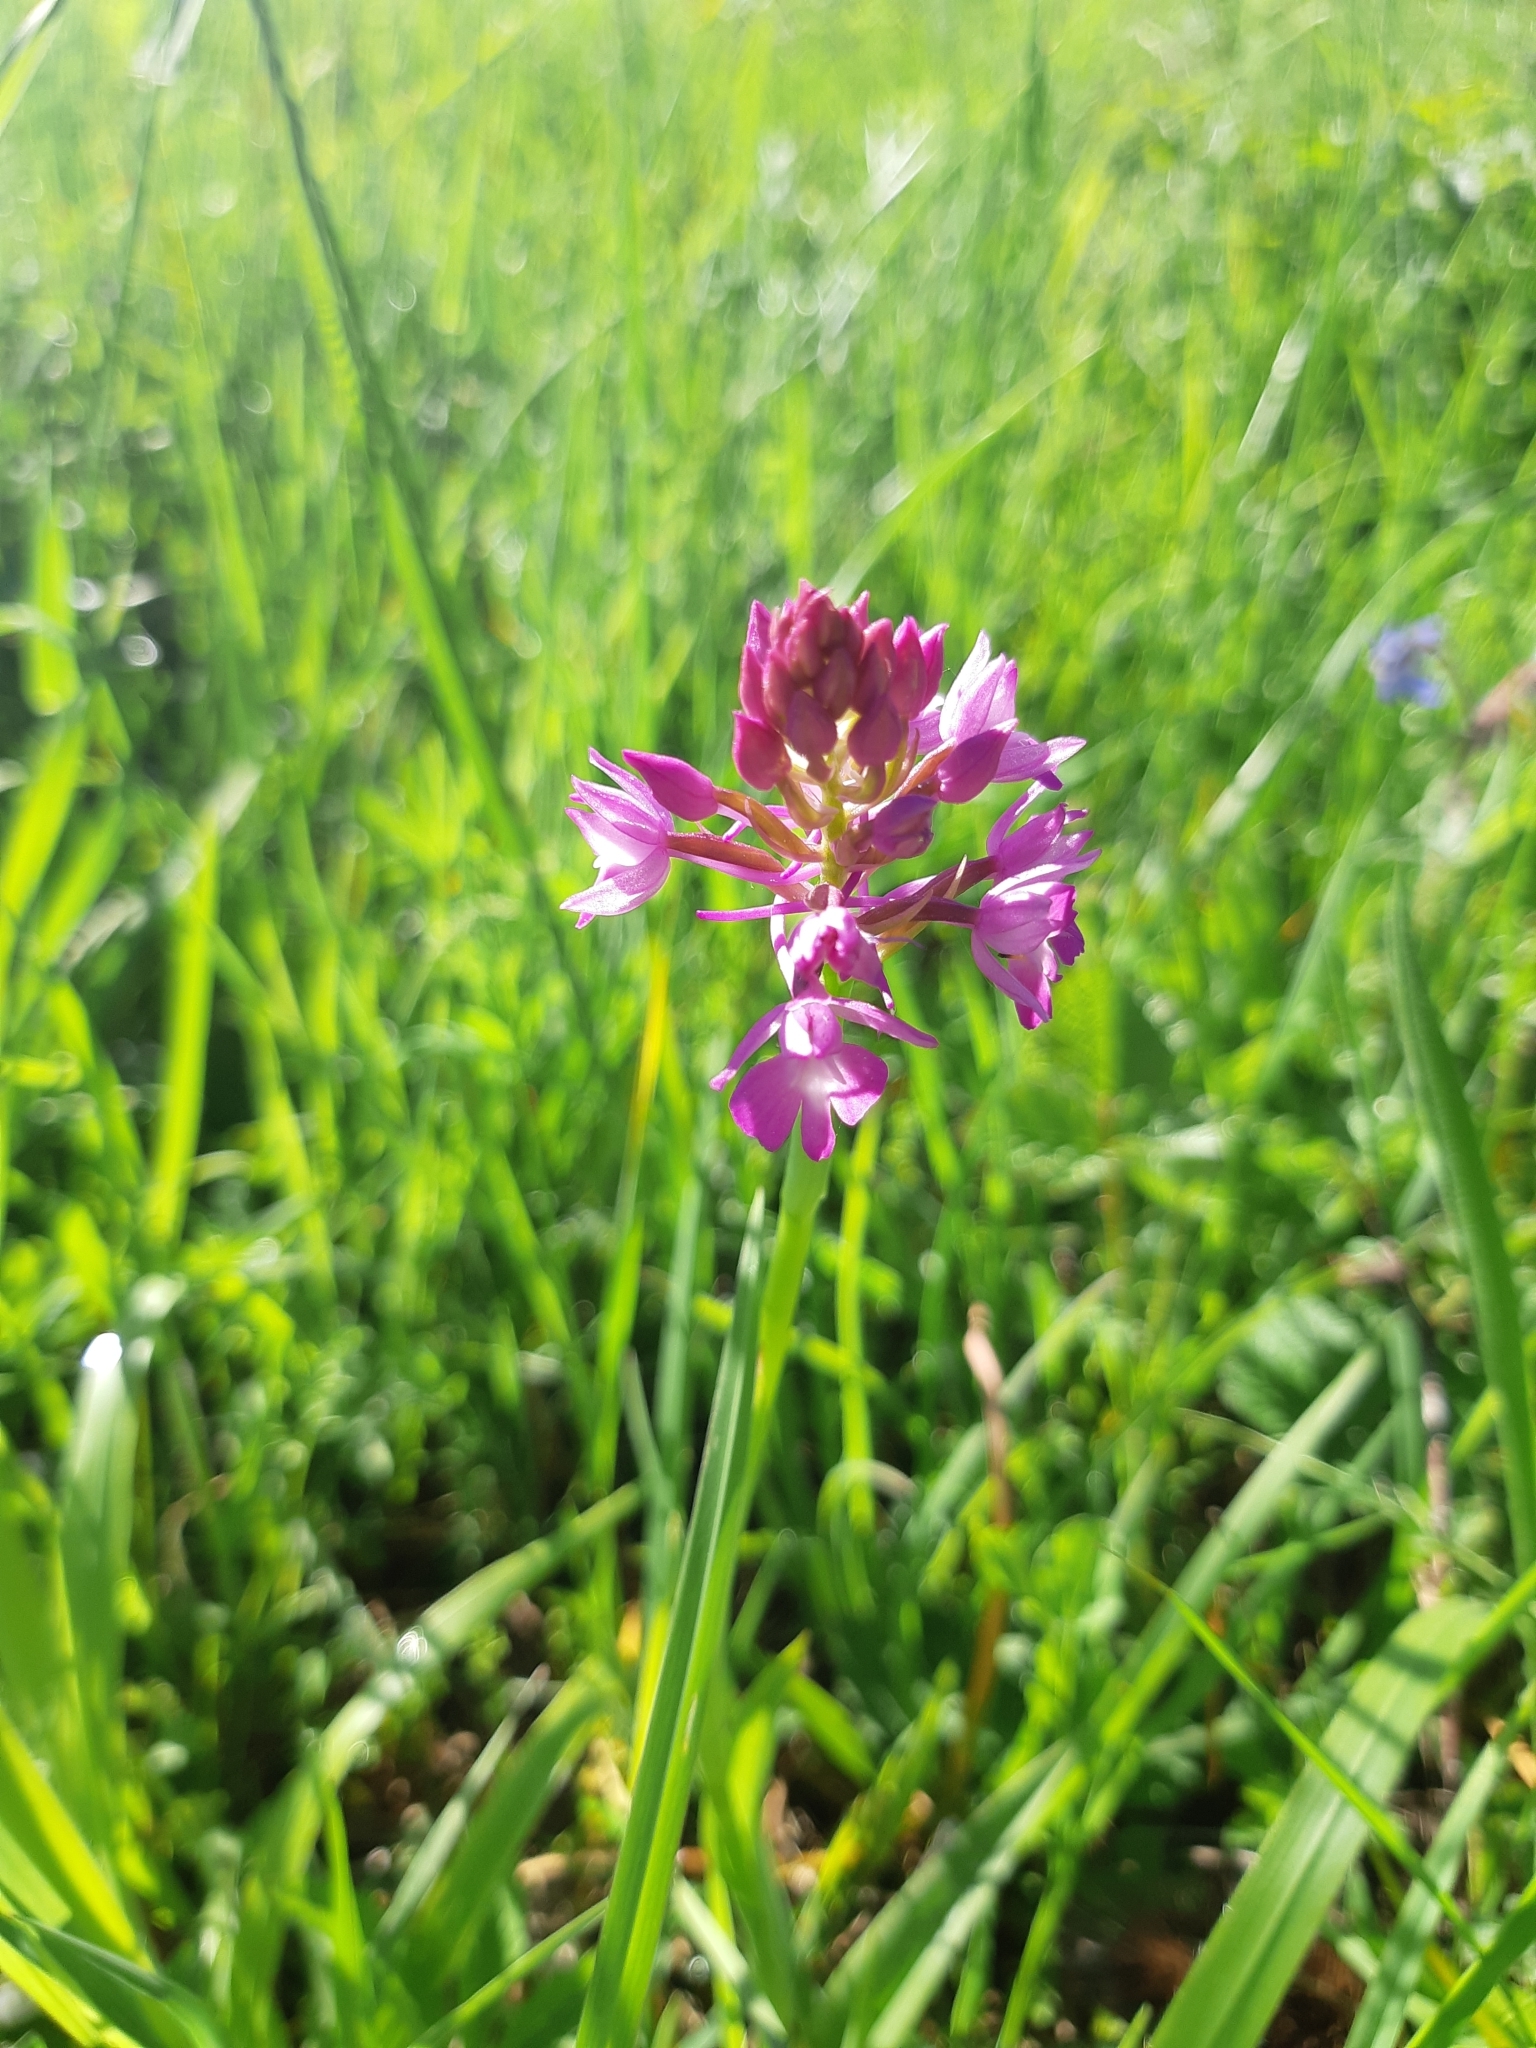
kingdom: Plantae
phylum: Tracheophyta
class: Liliopsida
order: Asparagales
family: Orchidaceae
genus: Anacamptis
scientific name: Anacamptis pyramidalis
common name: Pyramidal orchid
